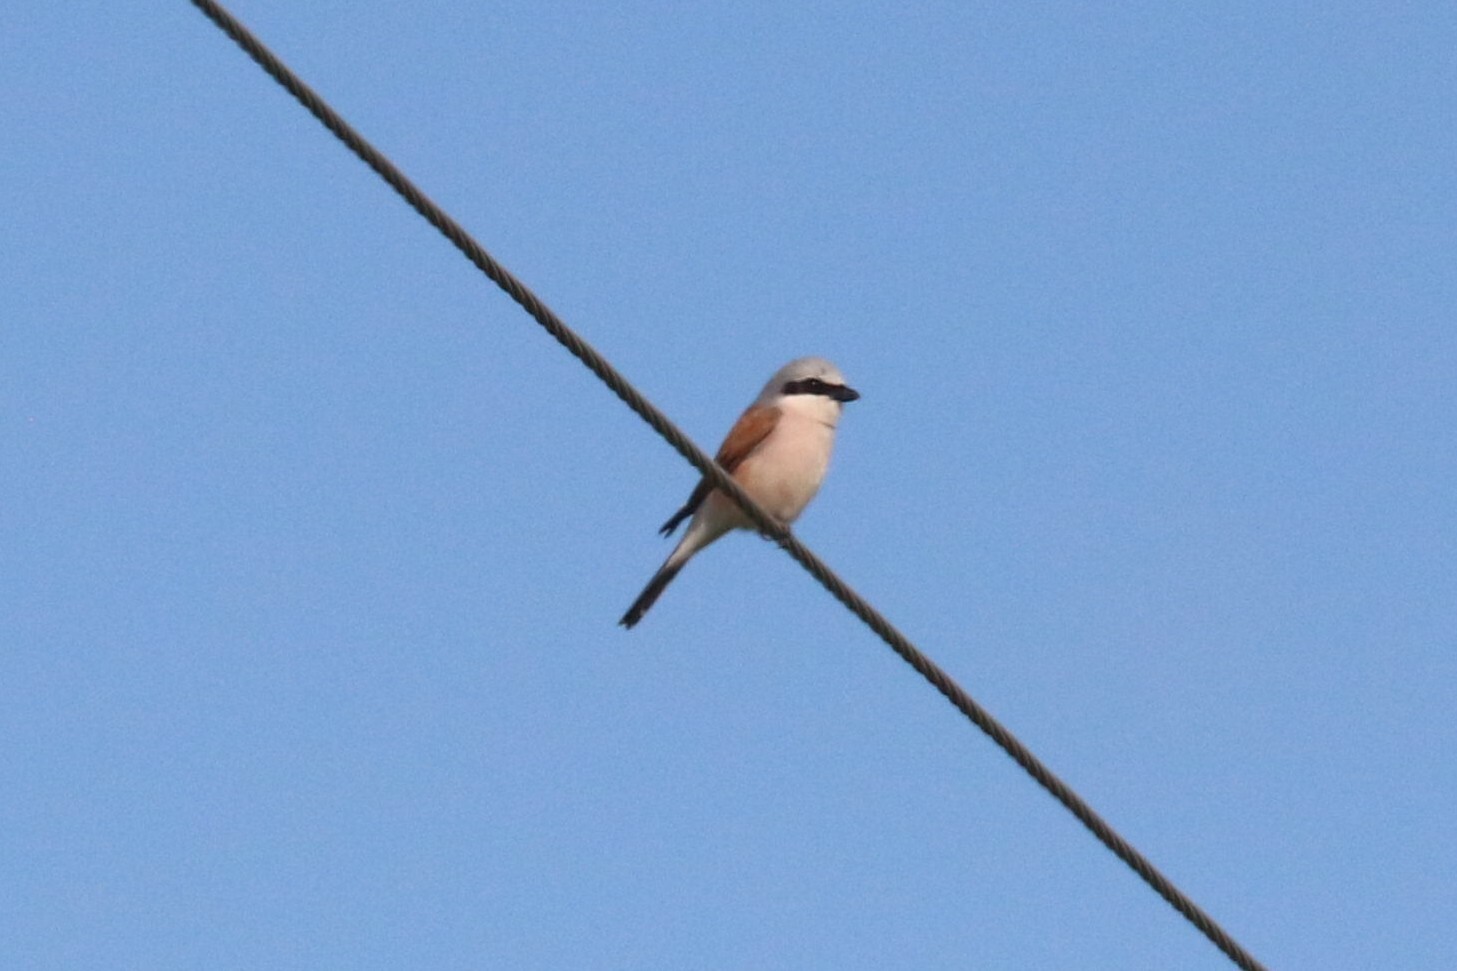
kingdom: Animalia
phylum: Chordata
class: Aves
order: Passeriformes
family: Laniidae
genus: Lanius
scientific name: Lanius collurio
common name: Red-backed shrike
